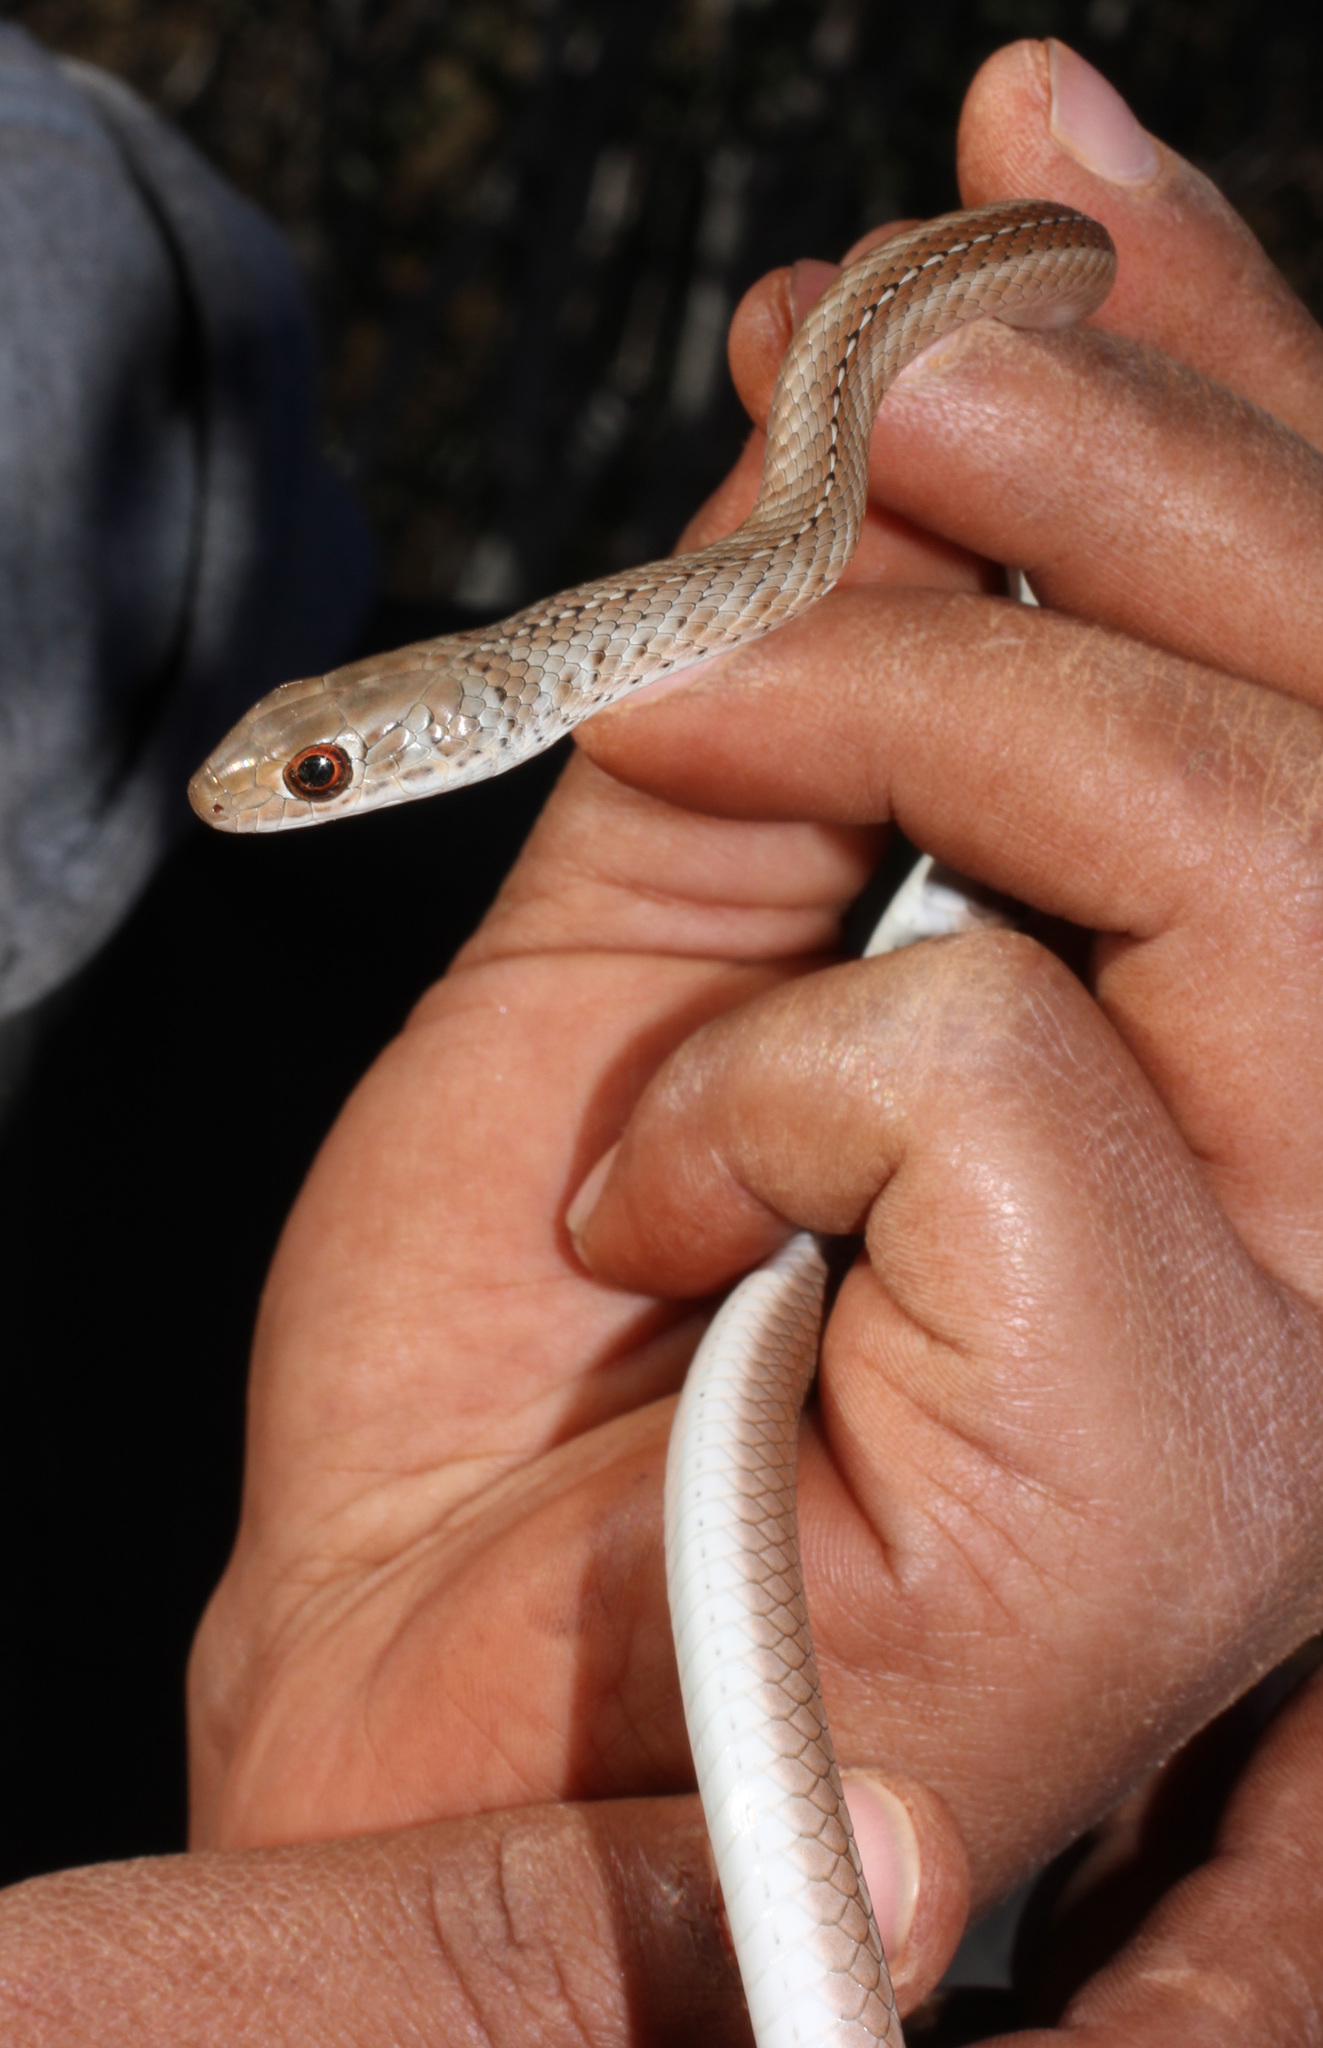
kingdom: Animalia
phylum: Chordata
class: Squamata
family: Psammophiidae
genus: Psammophis
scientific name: Psammophis brevirostris
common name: Short-snouted grass snake
